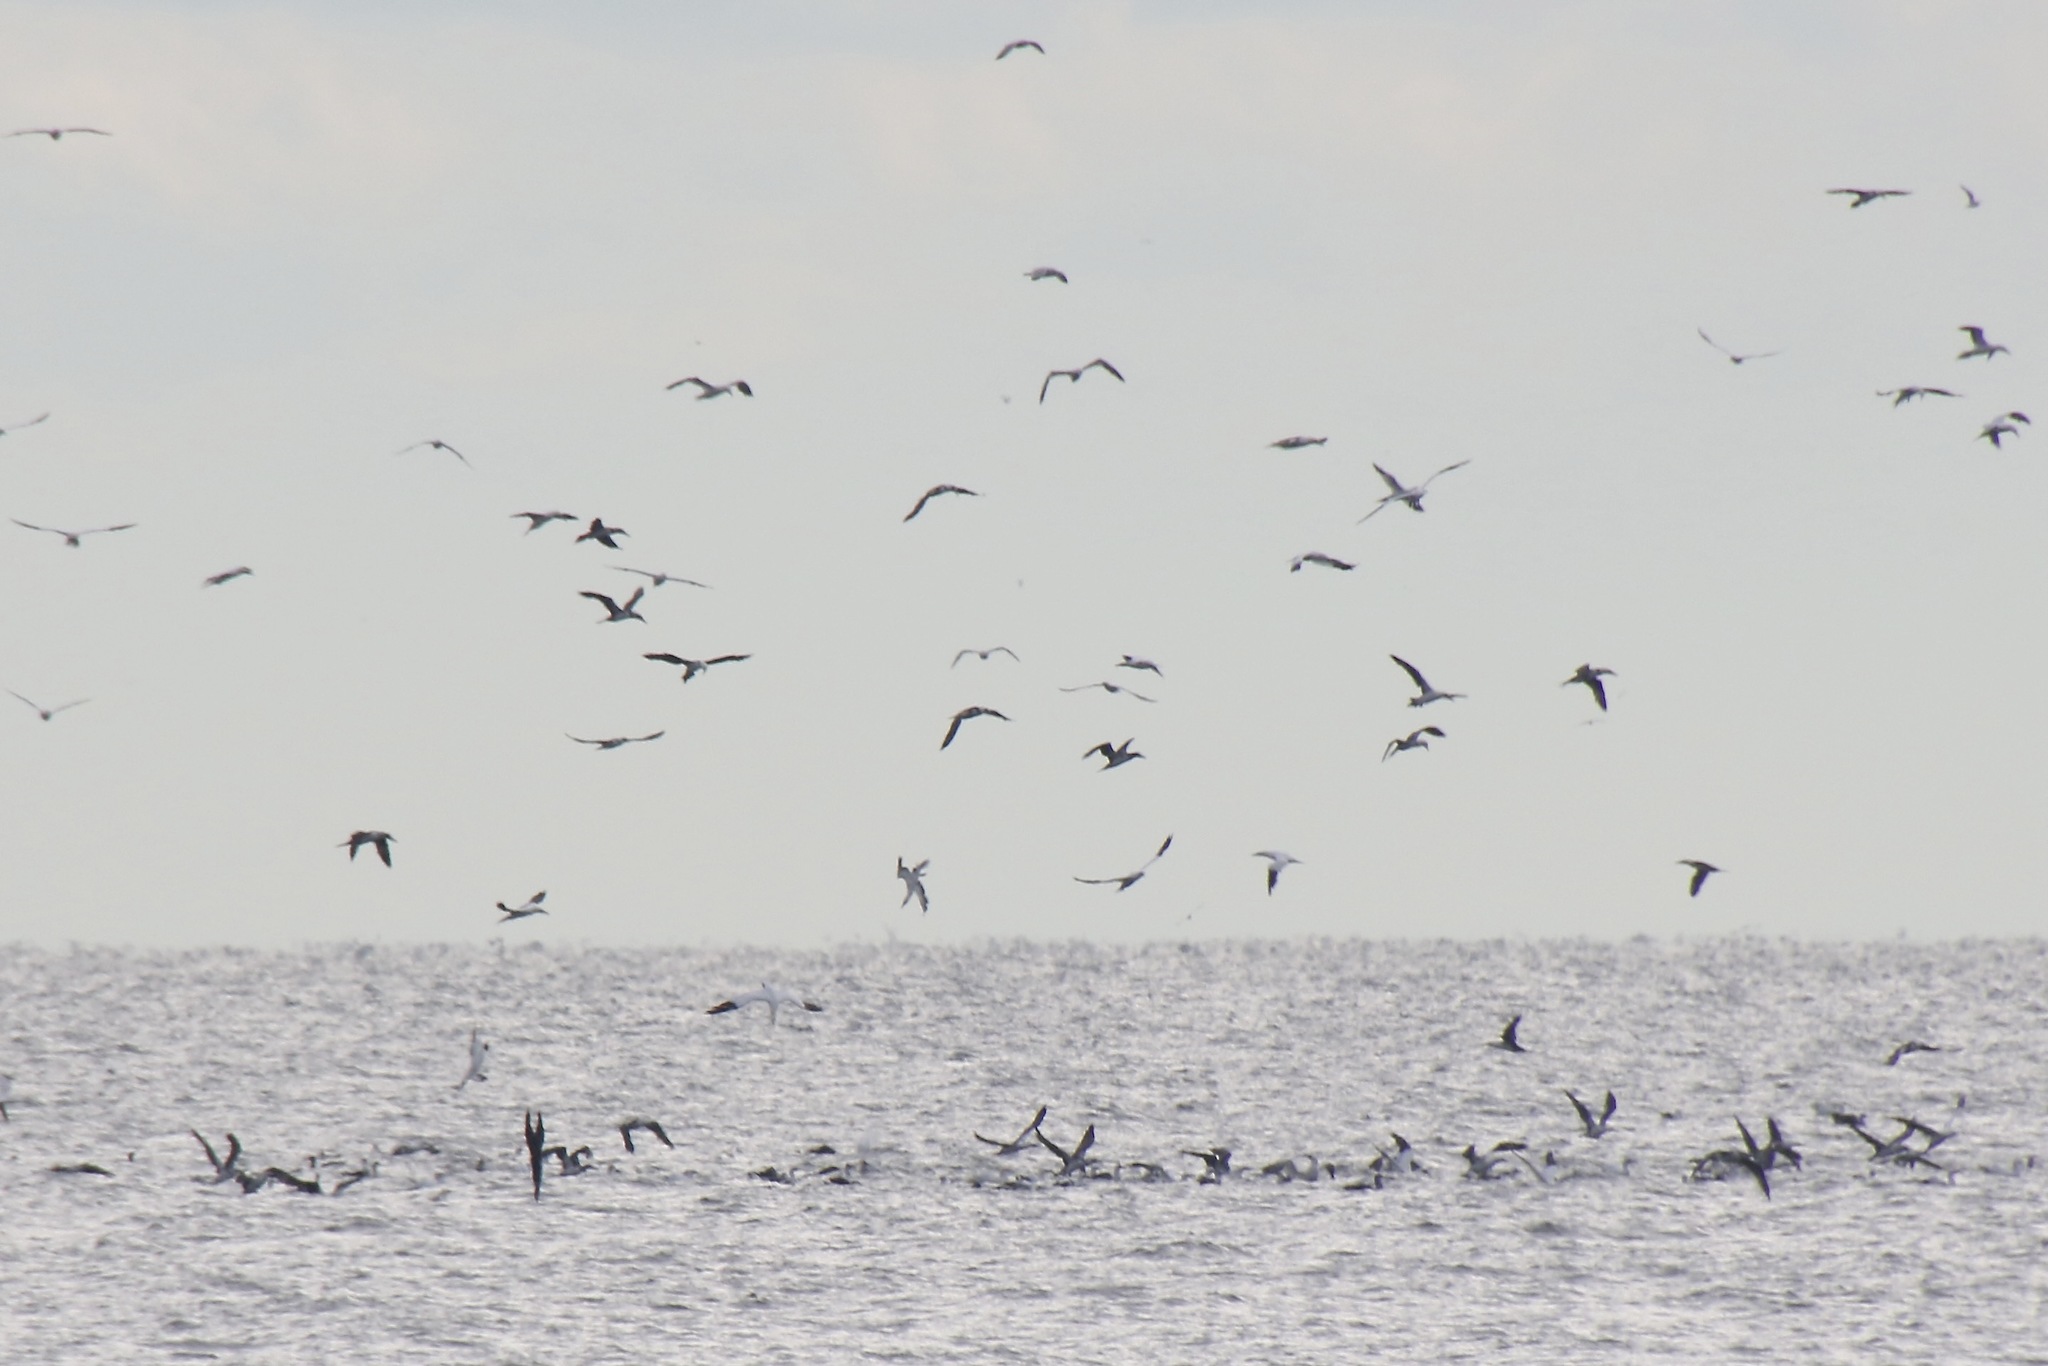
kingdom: Animalia
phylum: Chordata
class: Aves
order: Suliformes
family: Sulidae
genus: Morus
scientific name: Morus bassanus
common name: Northern gannet
